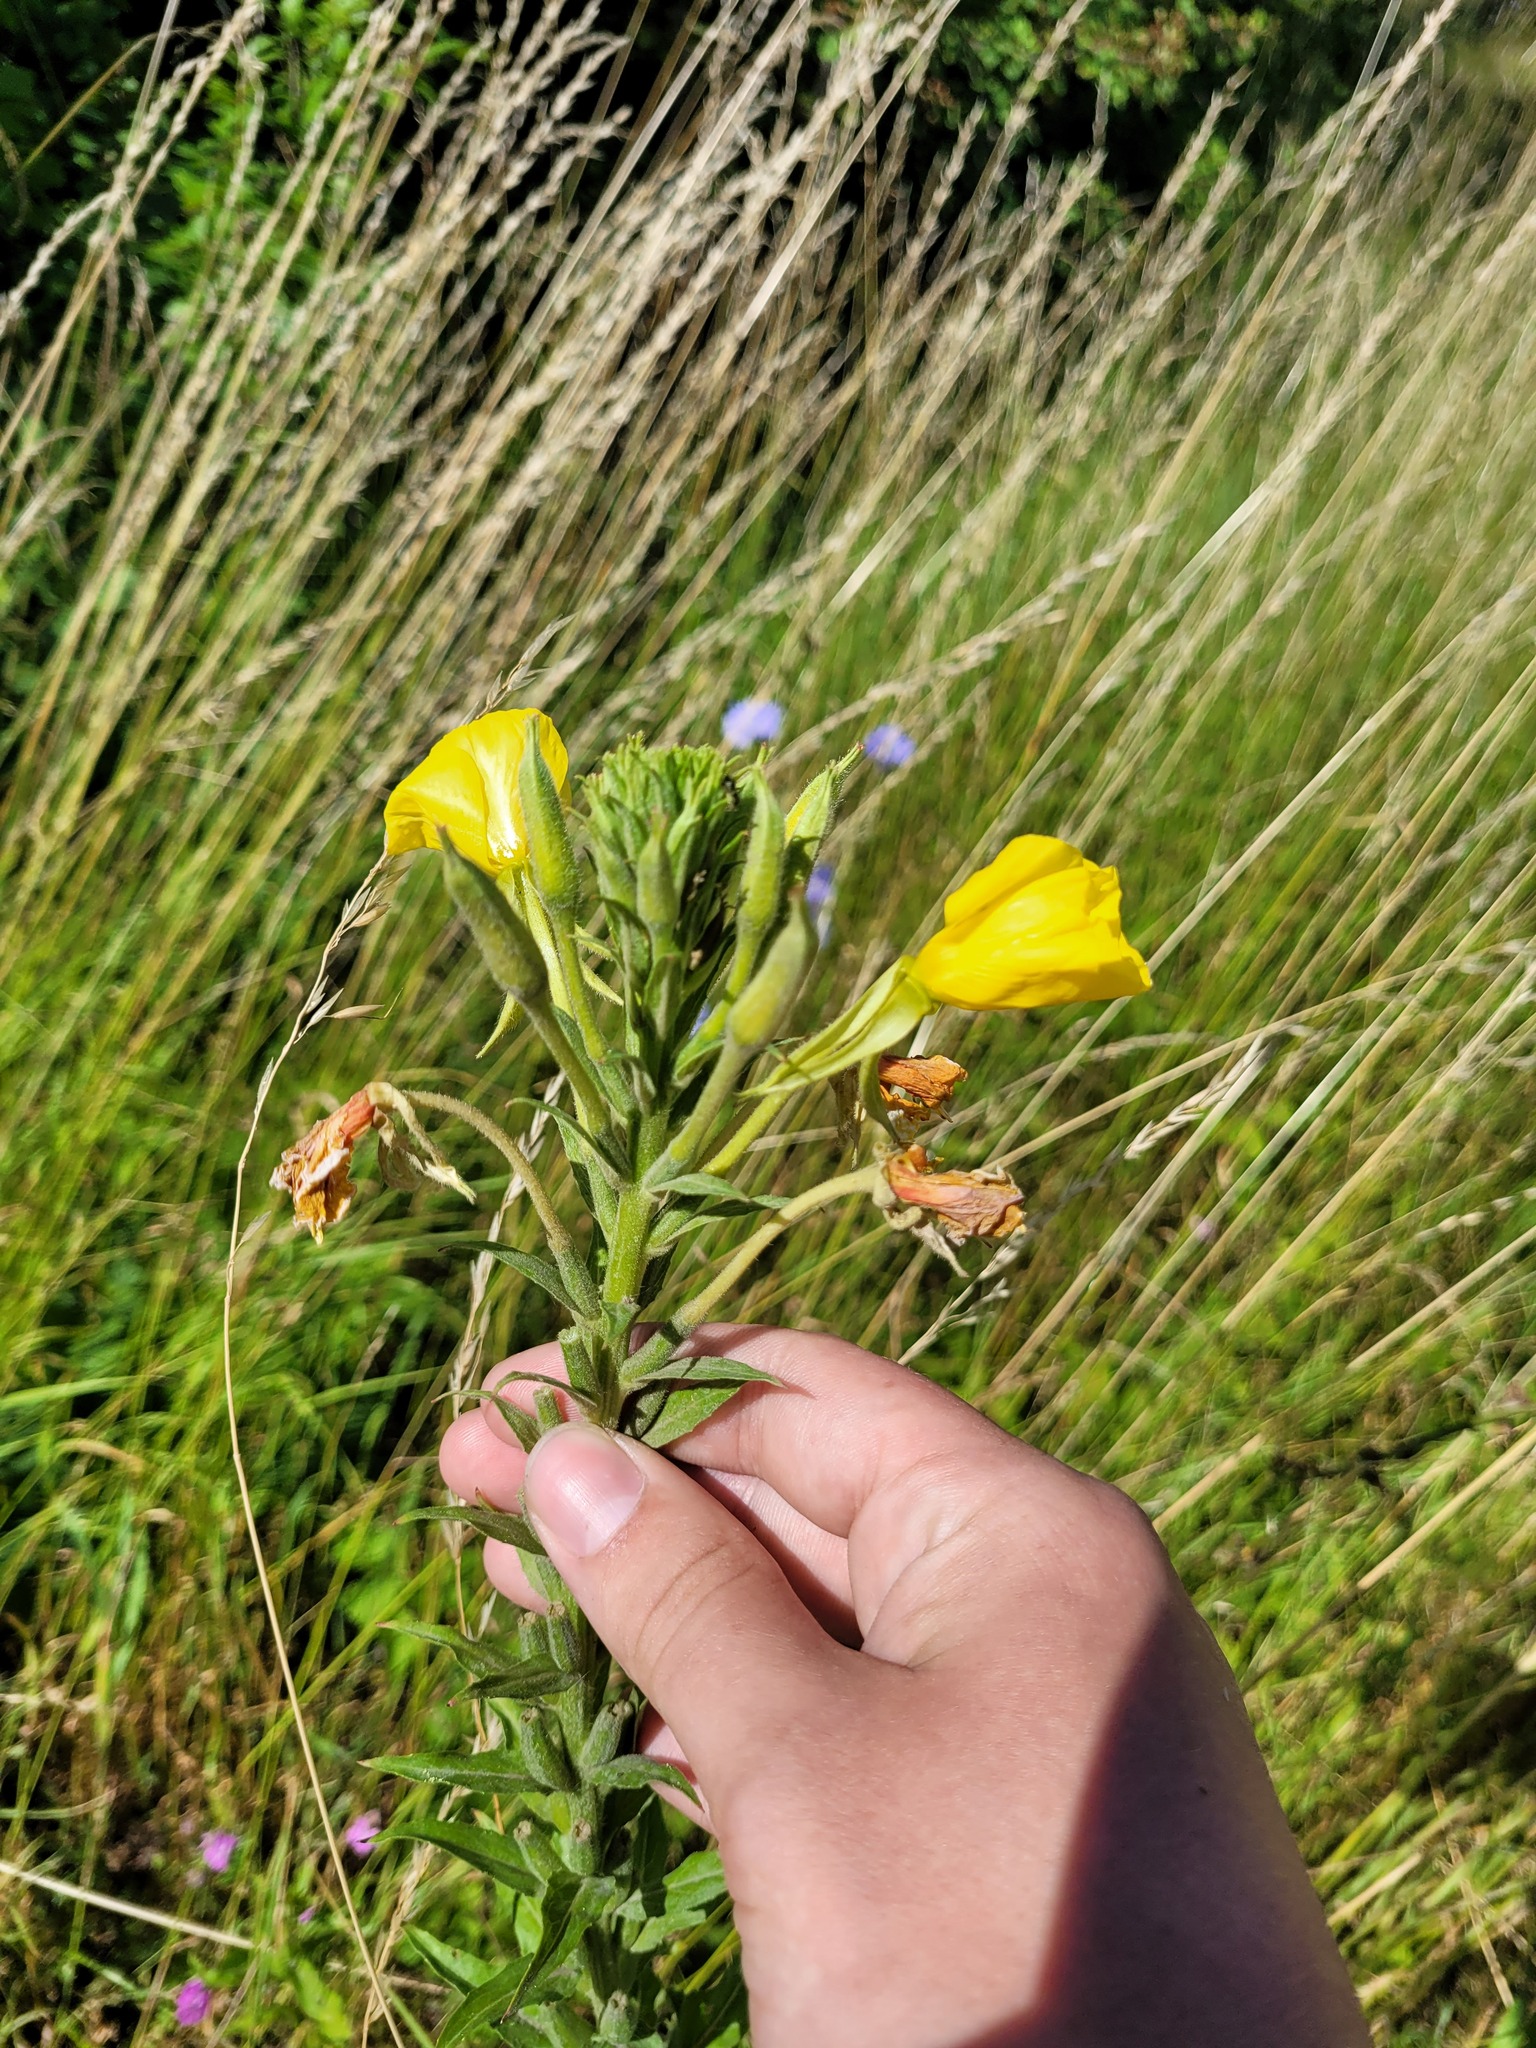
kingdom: Plantae
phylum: Tracheophyta
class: Magnoliopsida
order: Myrtales
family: Onagraceae
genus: Oenothera
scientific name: Oenothera biennis
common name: Common evening-primrose
